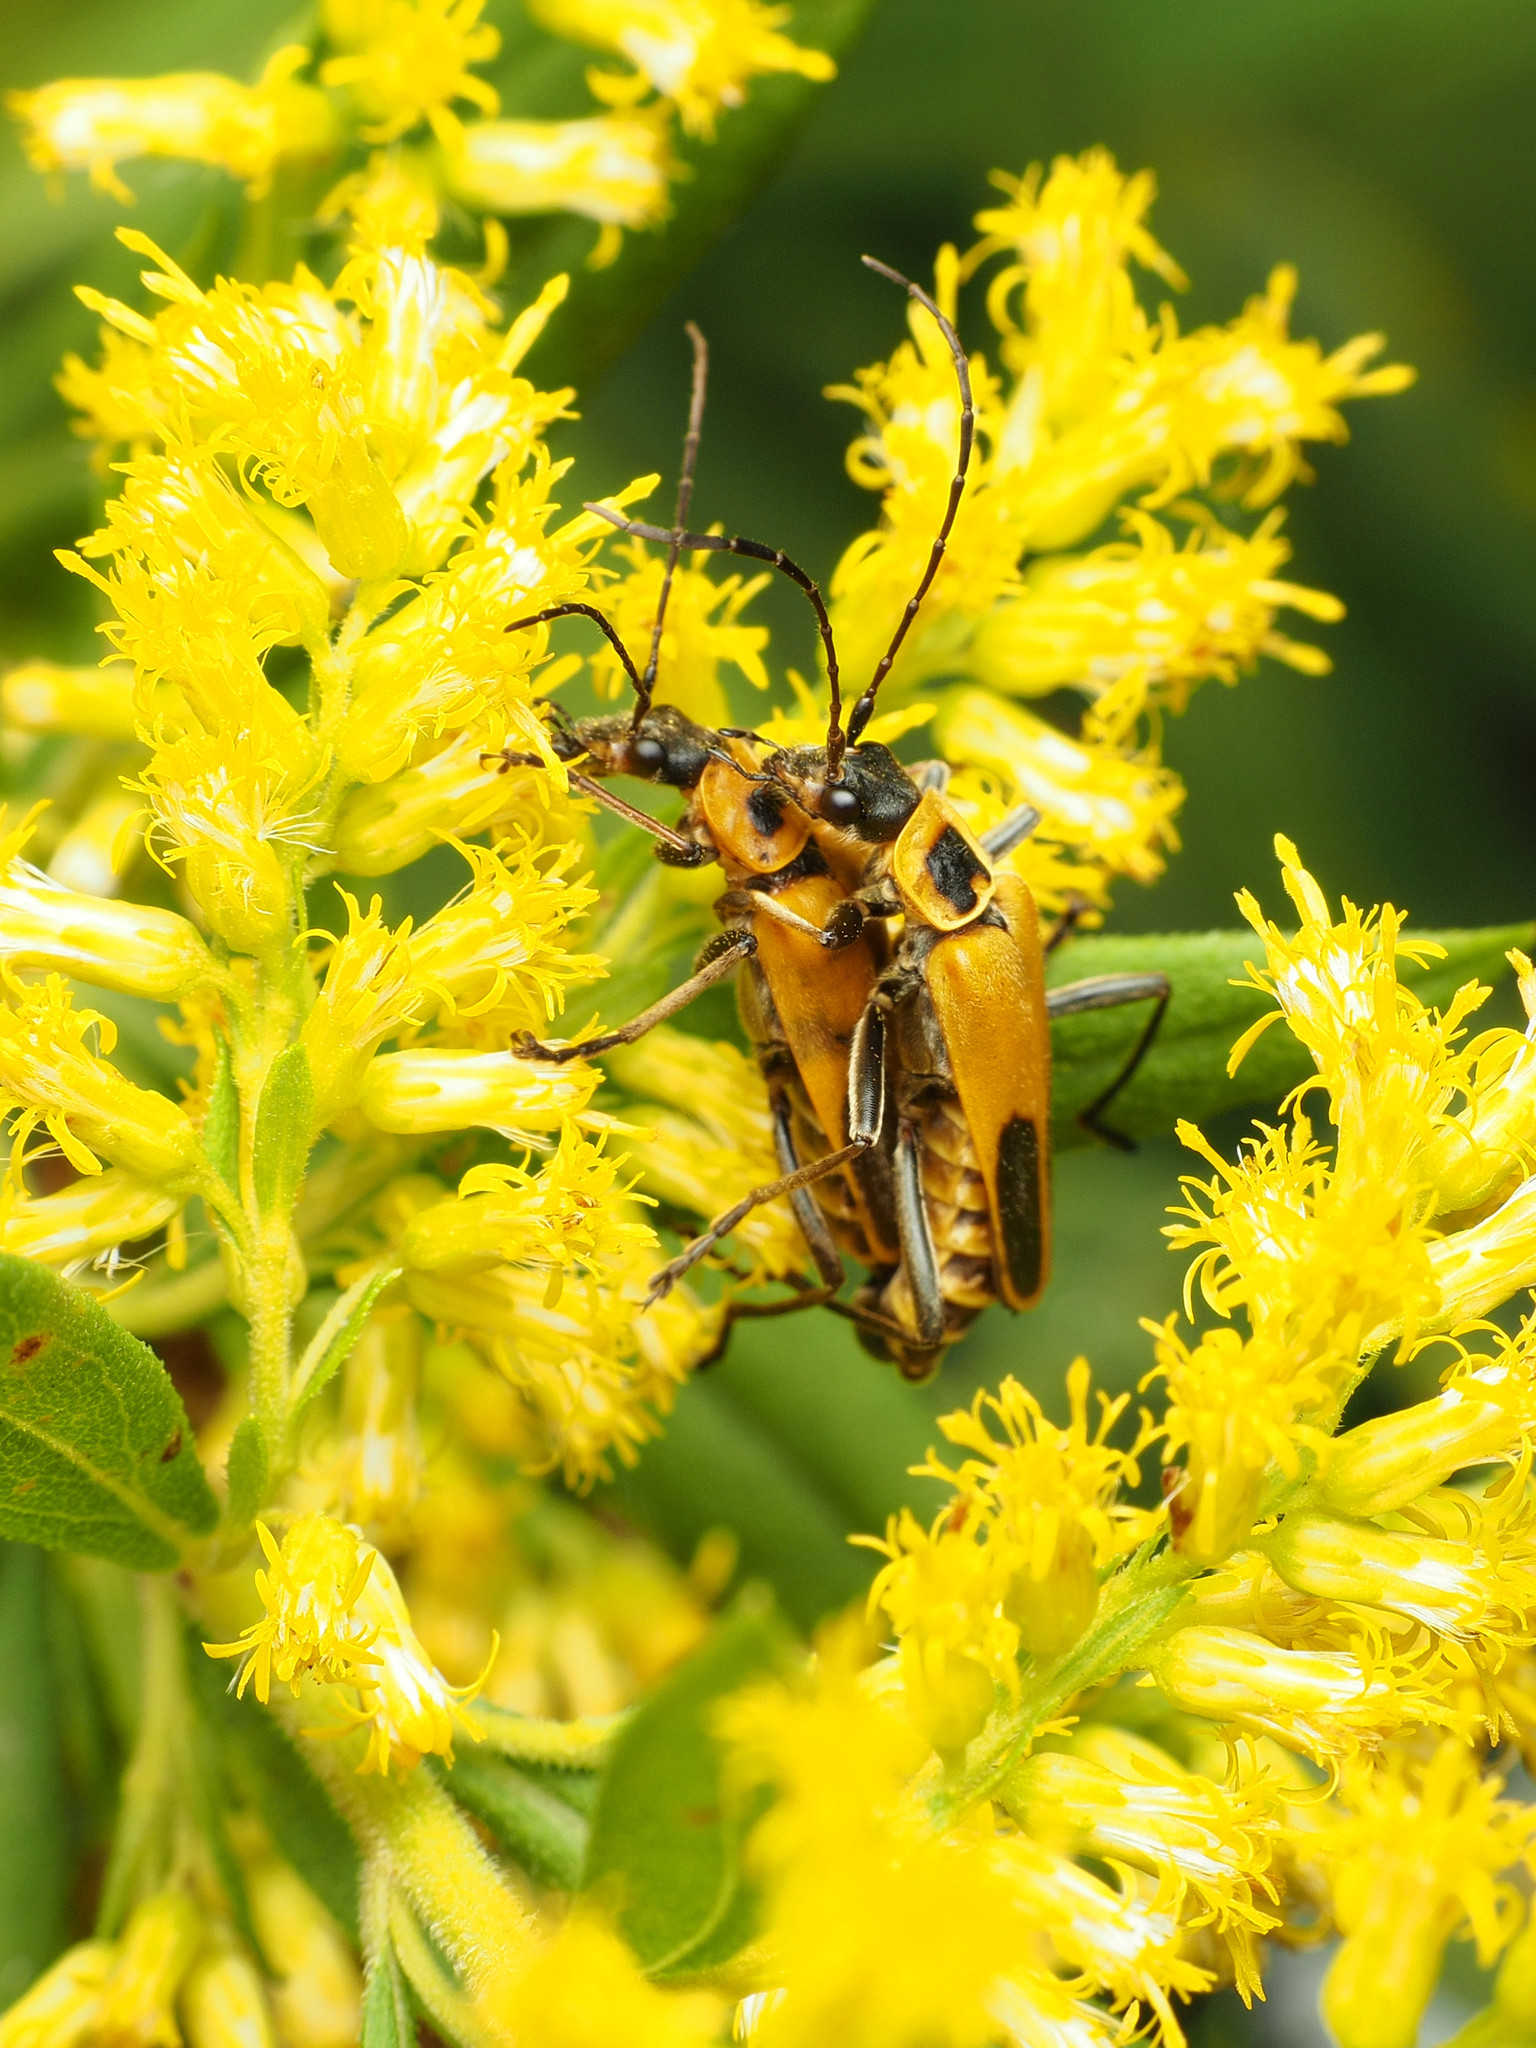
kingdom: Animalia
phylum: Arthropoda
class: Insecta
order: Coleoptera
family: Cantharidae
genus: Chauliognathus
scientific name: Chauliognathus pensylvanicus
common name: Goldenrod soldier beetle
